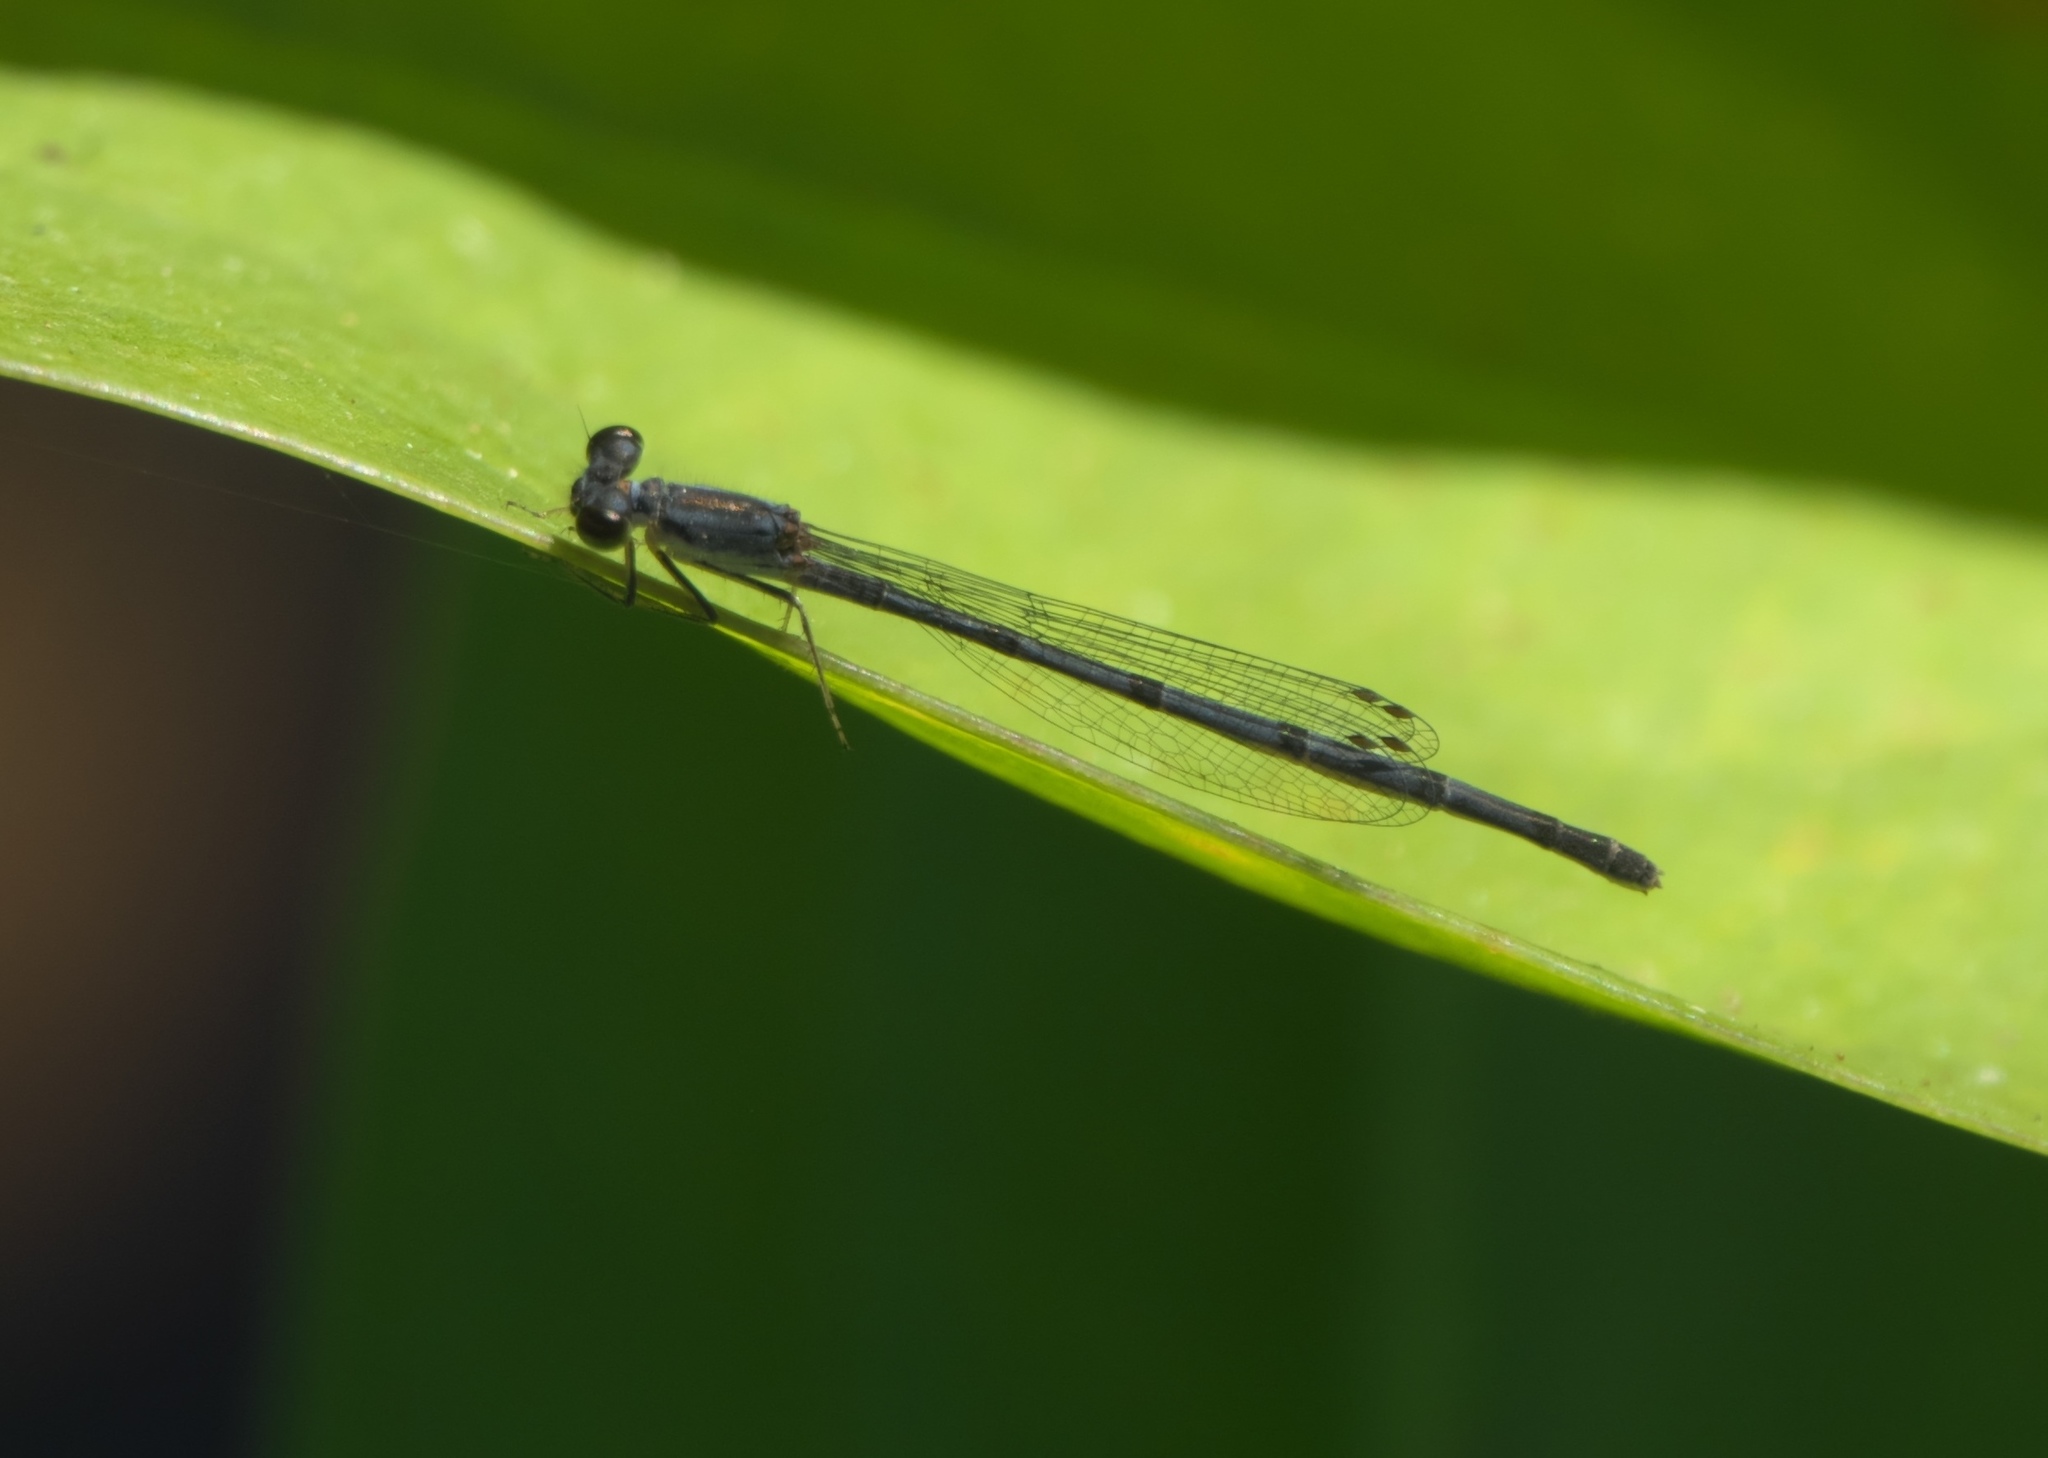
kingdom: Animalia
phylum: Arthropoda
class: Insecta
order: Odonata
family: Coenagrionidae
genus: Ischnura
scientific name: Ischnura posita
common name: Fragile forktail
